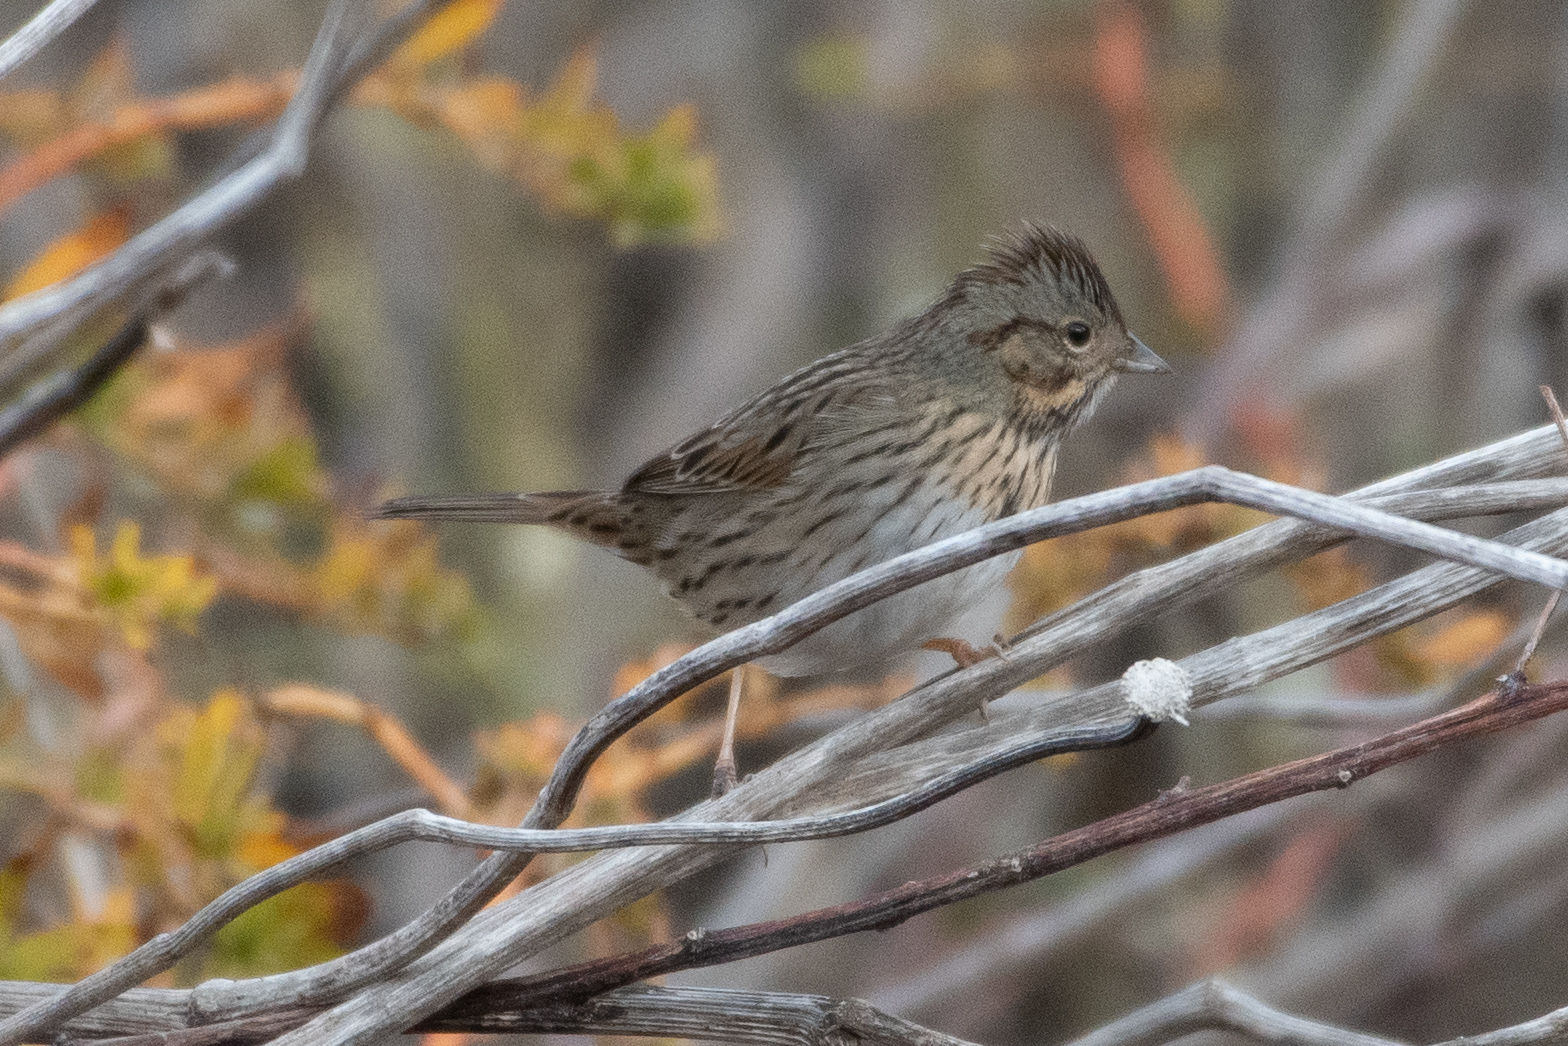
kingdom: Animalia
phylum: Chordata
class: Aves
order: Passeriformes
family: Passerellidae
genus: Melospiza
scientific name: Melospiza lincolnii
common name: Lincoln's sparrow
